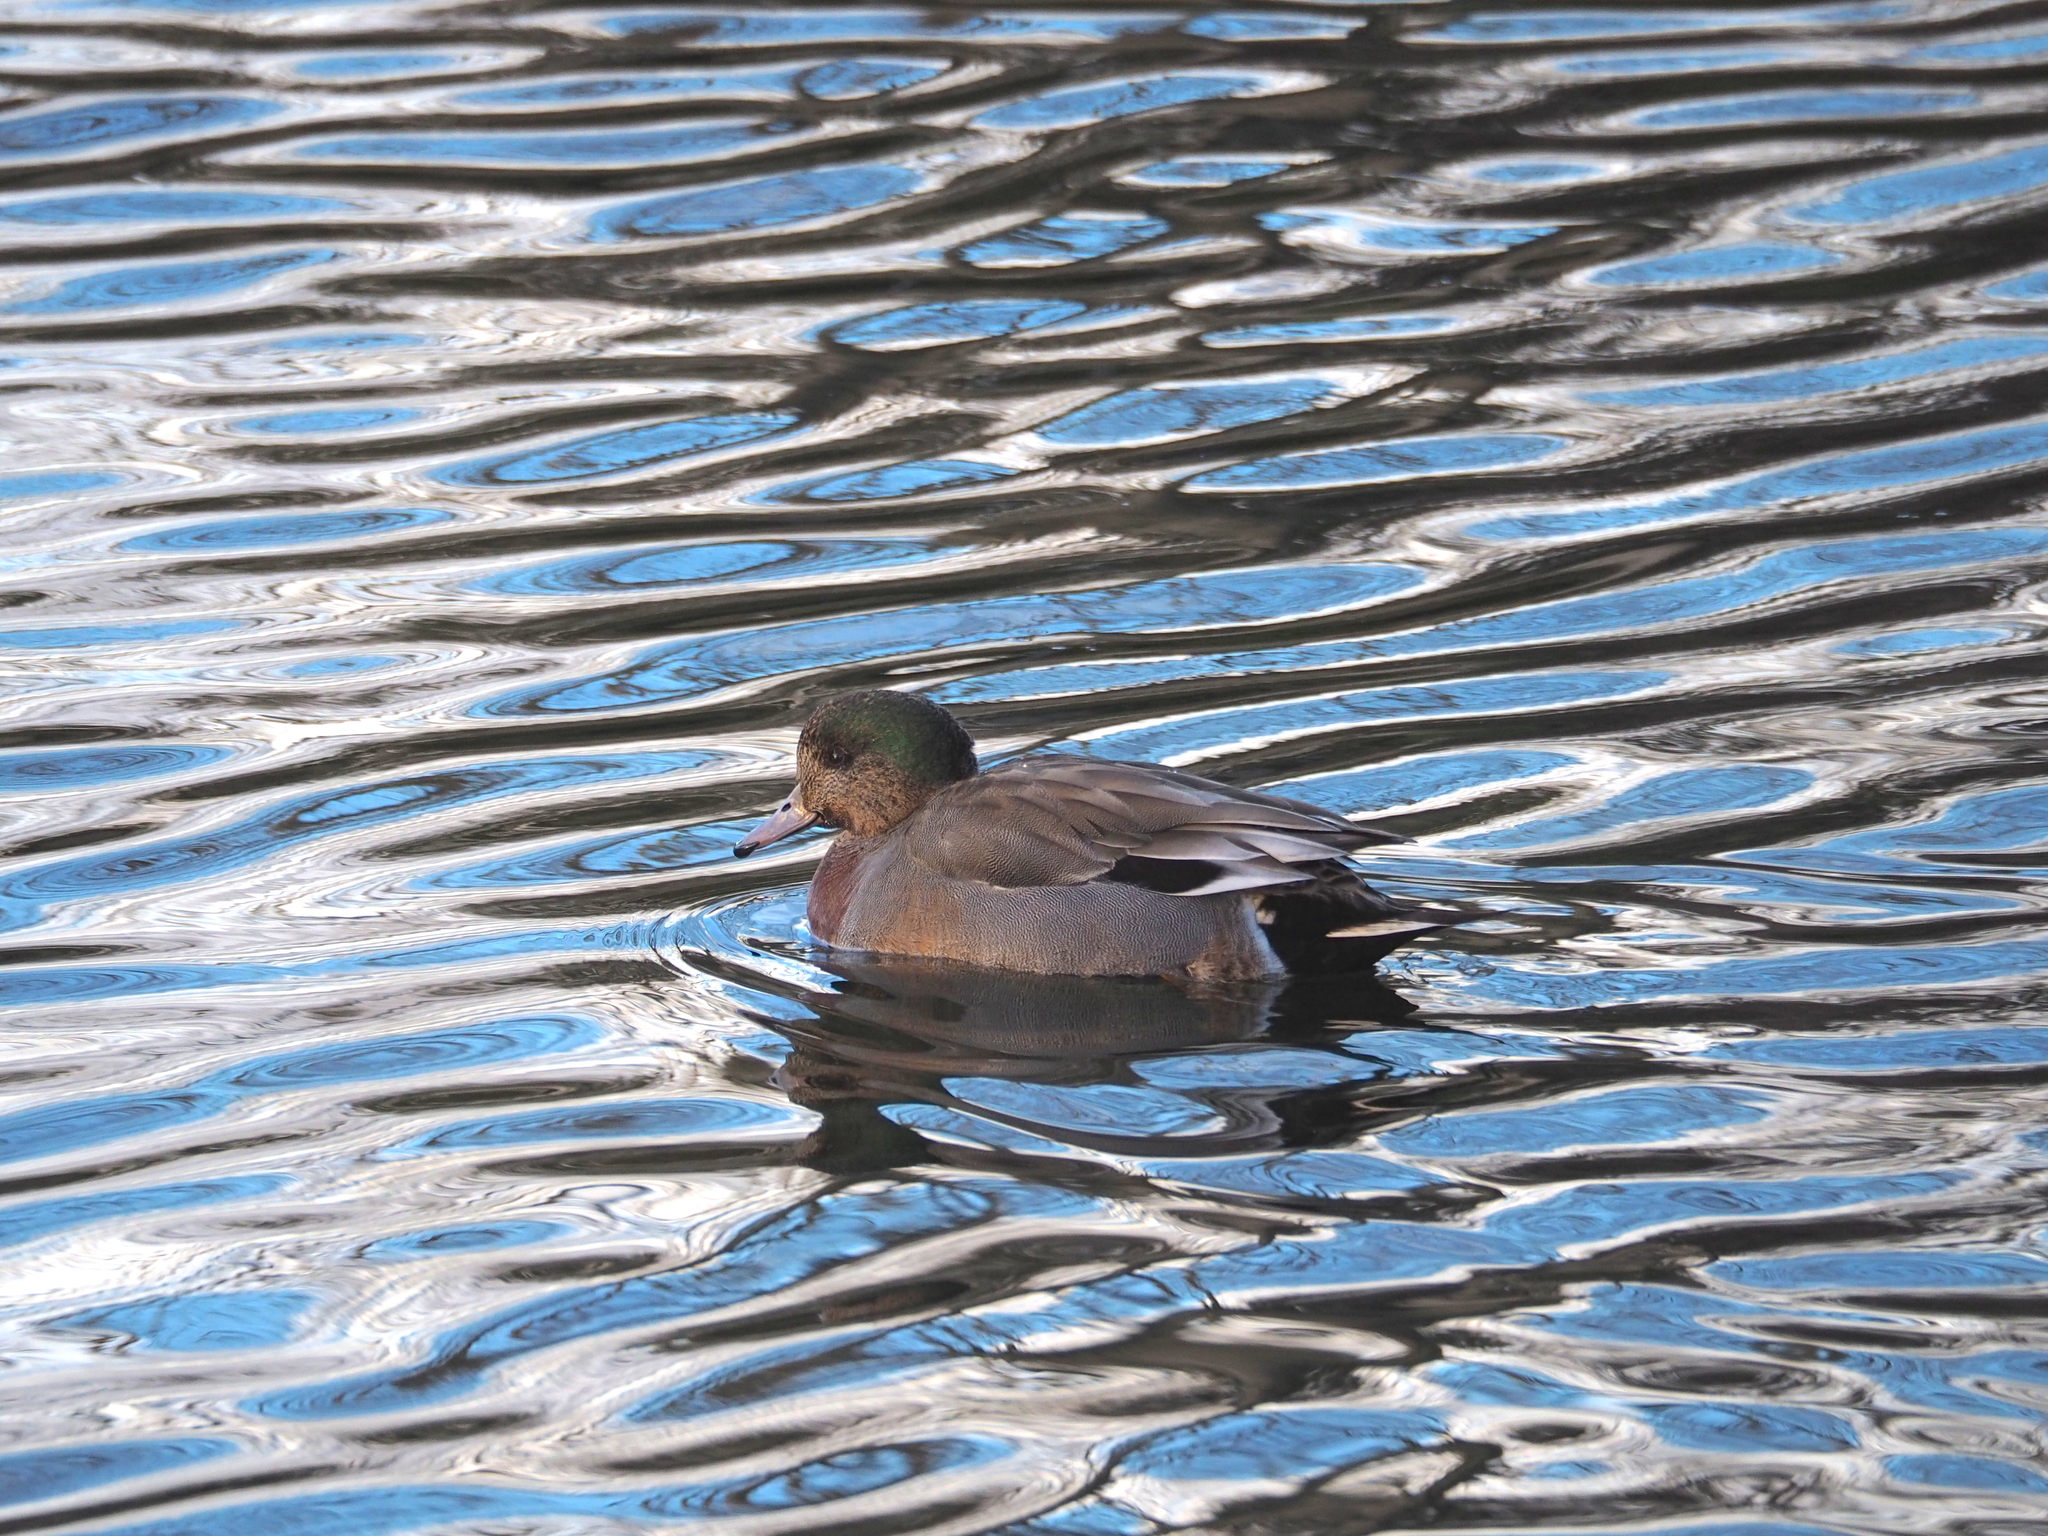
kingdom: Animalia
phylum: Chordata
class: Aves
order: Anseriformes
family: Anatidae
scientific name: Anatidae
